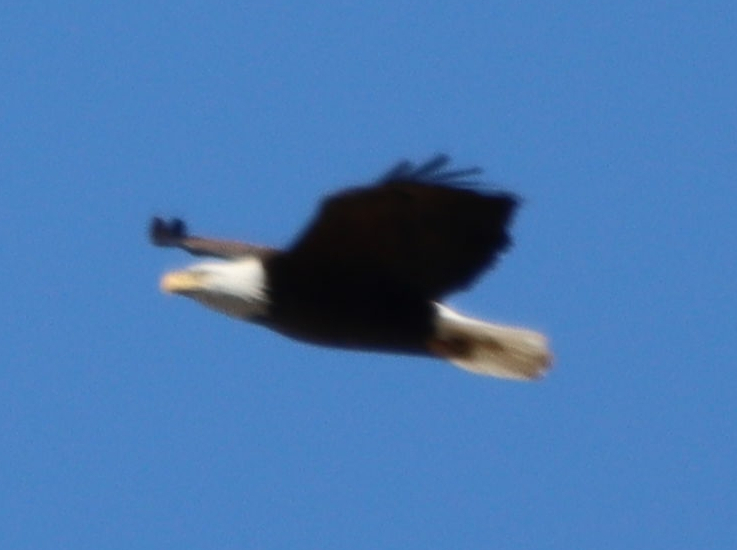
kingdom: Animalia
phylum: Chordata
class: Aves
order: Accipitriformes
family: Accipitridae
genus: Haliaeetus
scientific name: Haliaeetus leucocephalus
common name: Bald eagle
